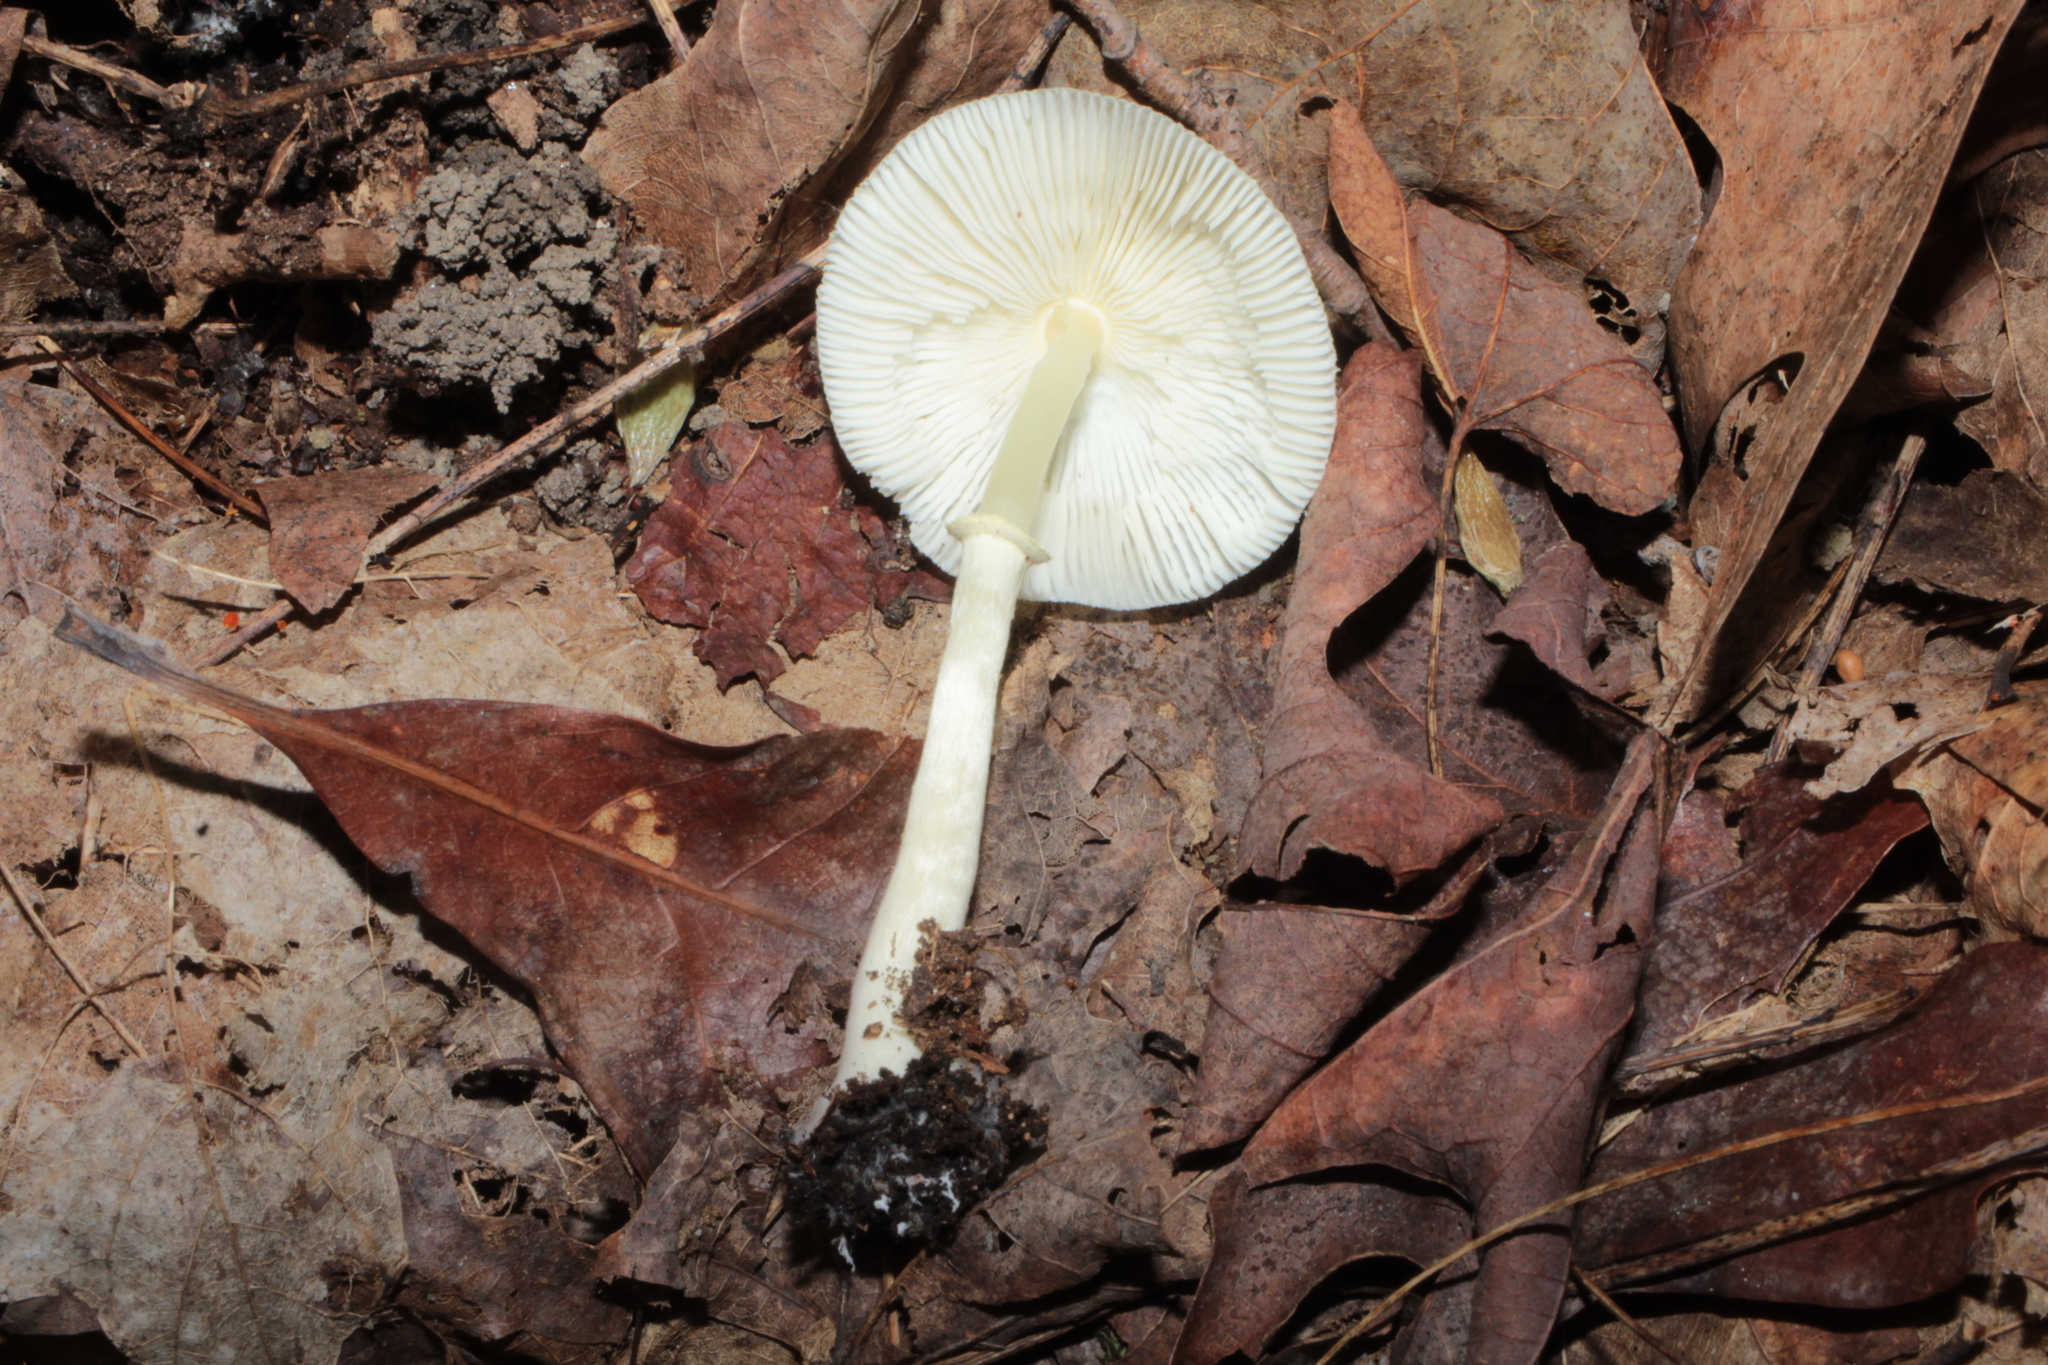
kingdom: Fungi
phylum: Basidiomycota
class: Agaricomycetes
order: Agaricales
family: Agaricaceae
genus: Leucocoprinus
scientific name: Leucocoprinus flavescens
